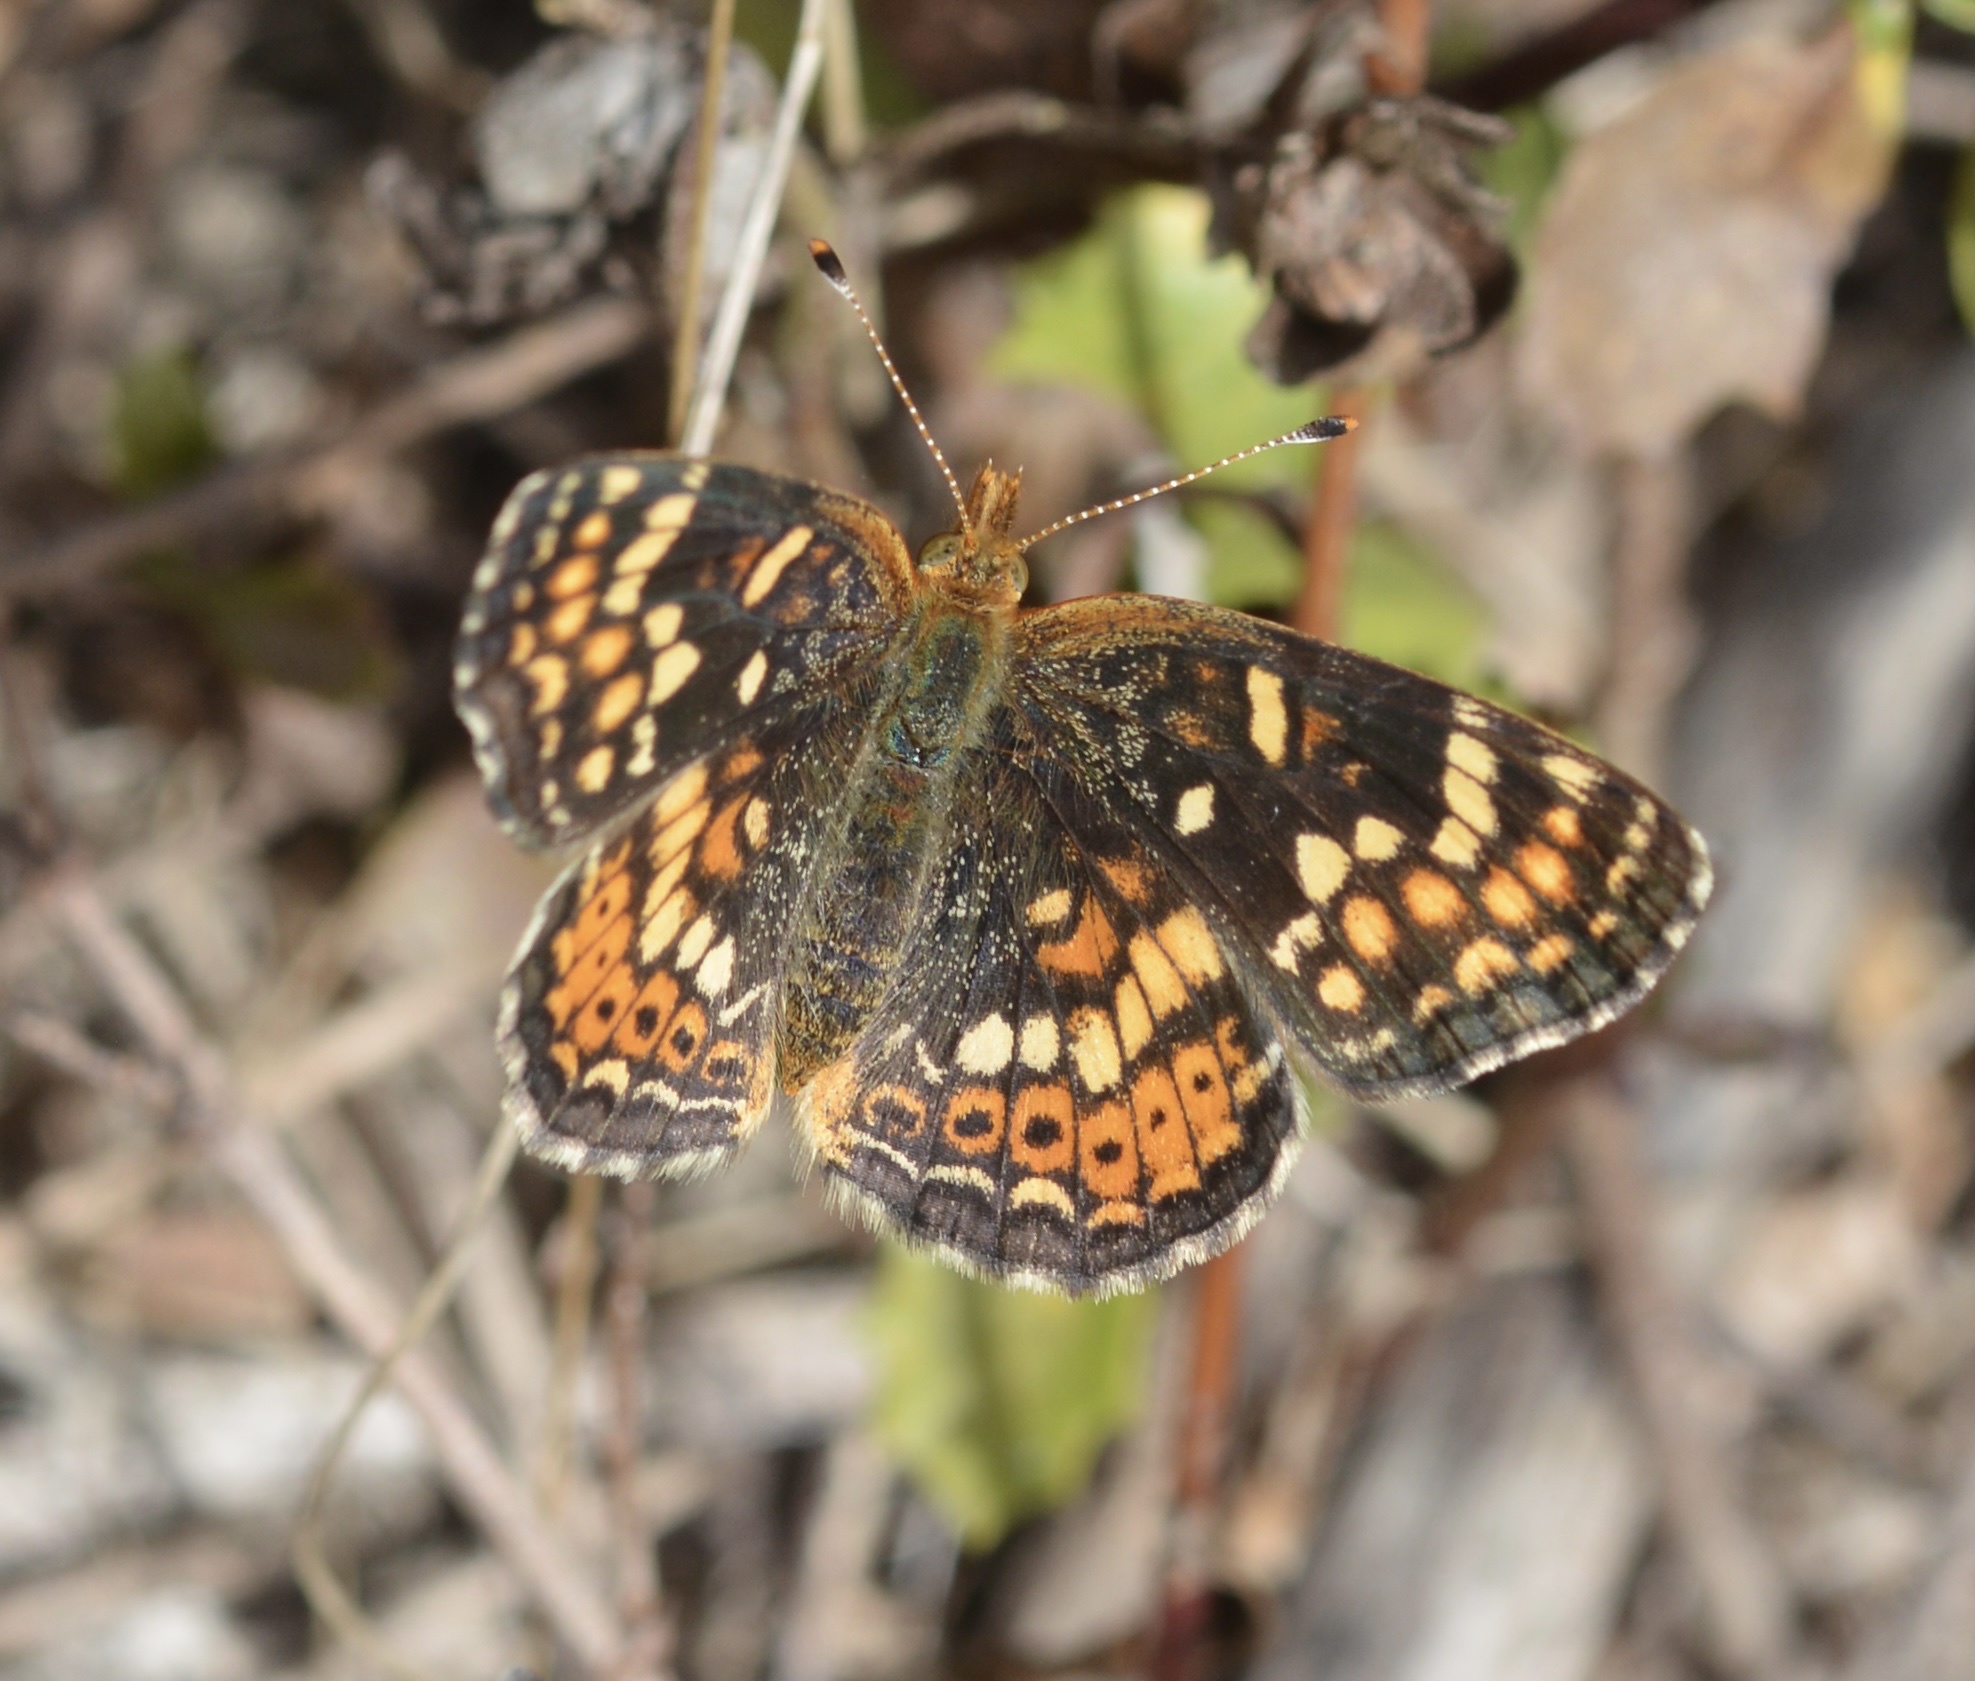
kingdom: Animalia
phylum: Arthropoda
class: Insecta
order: Lepidoptera
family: Nymphalidae
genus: Phyciodes
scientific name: Phyciodes tharos
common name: Pearl crescent
